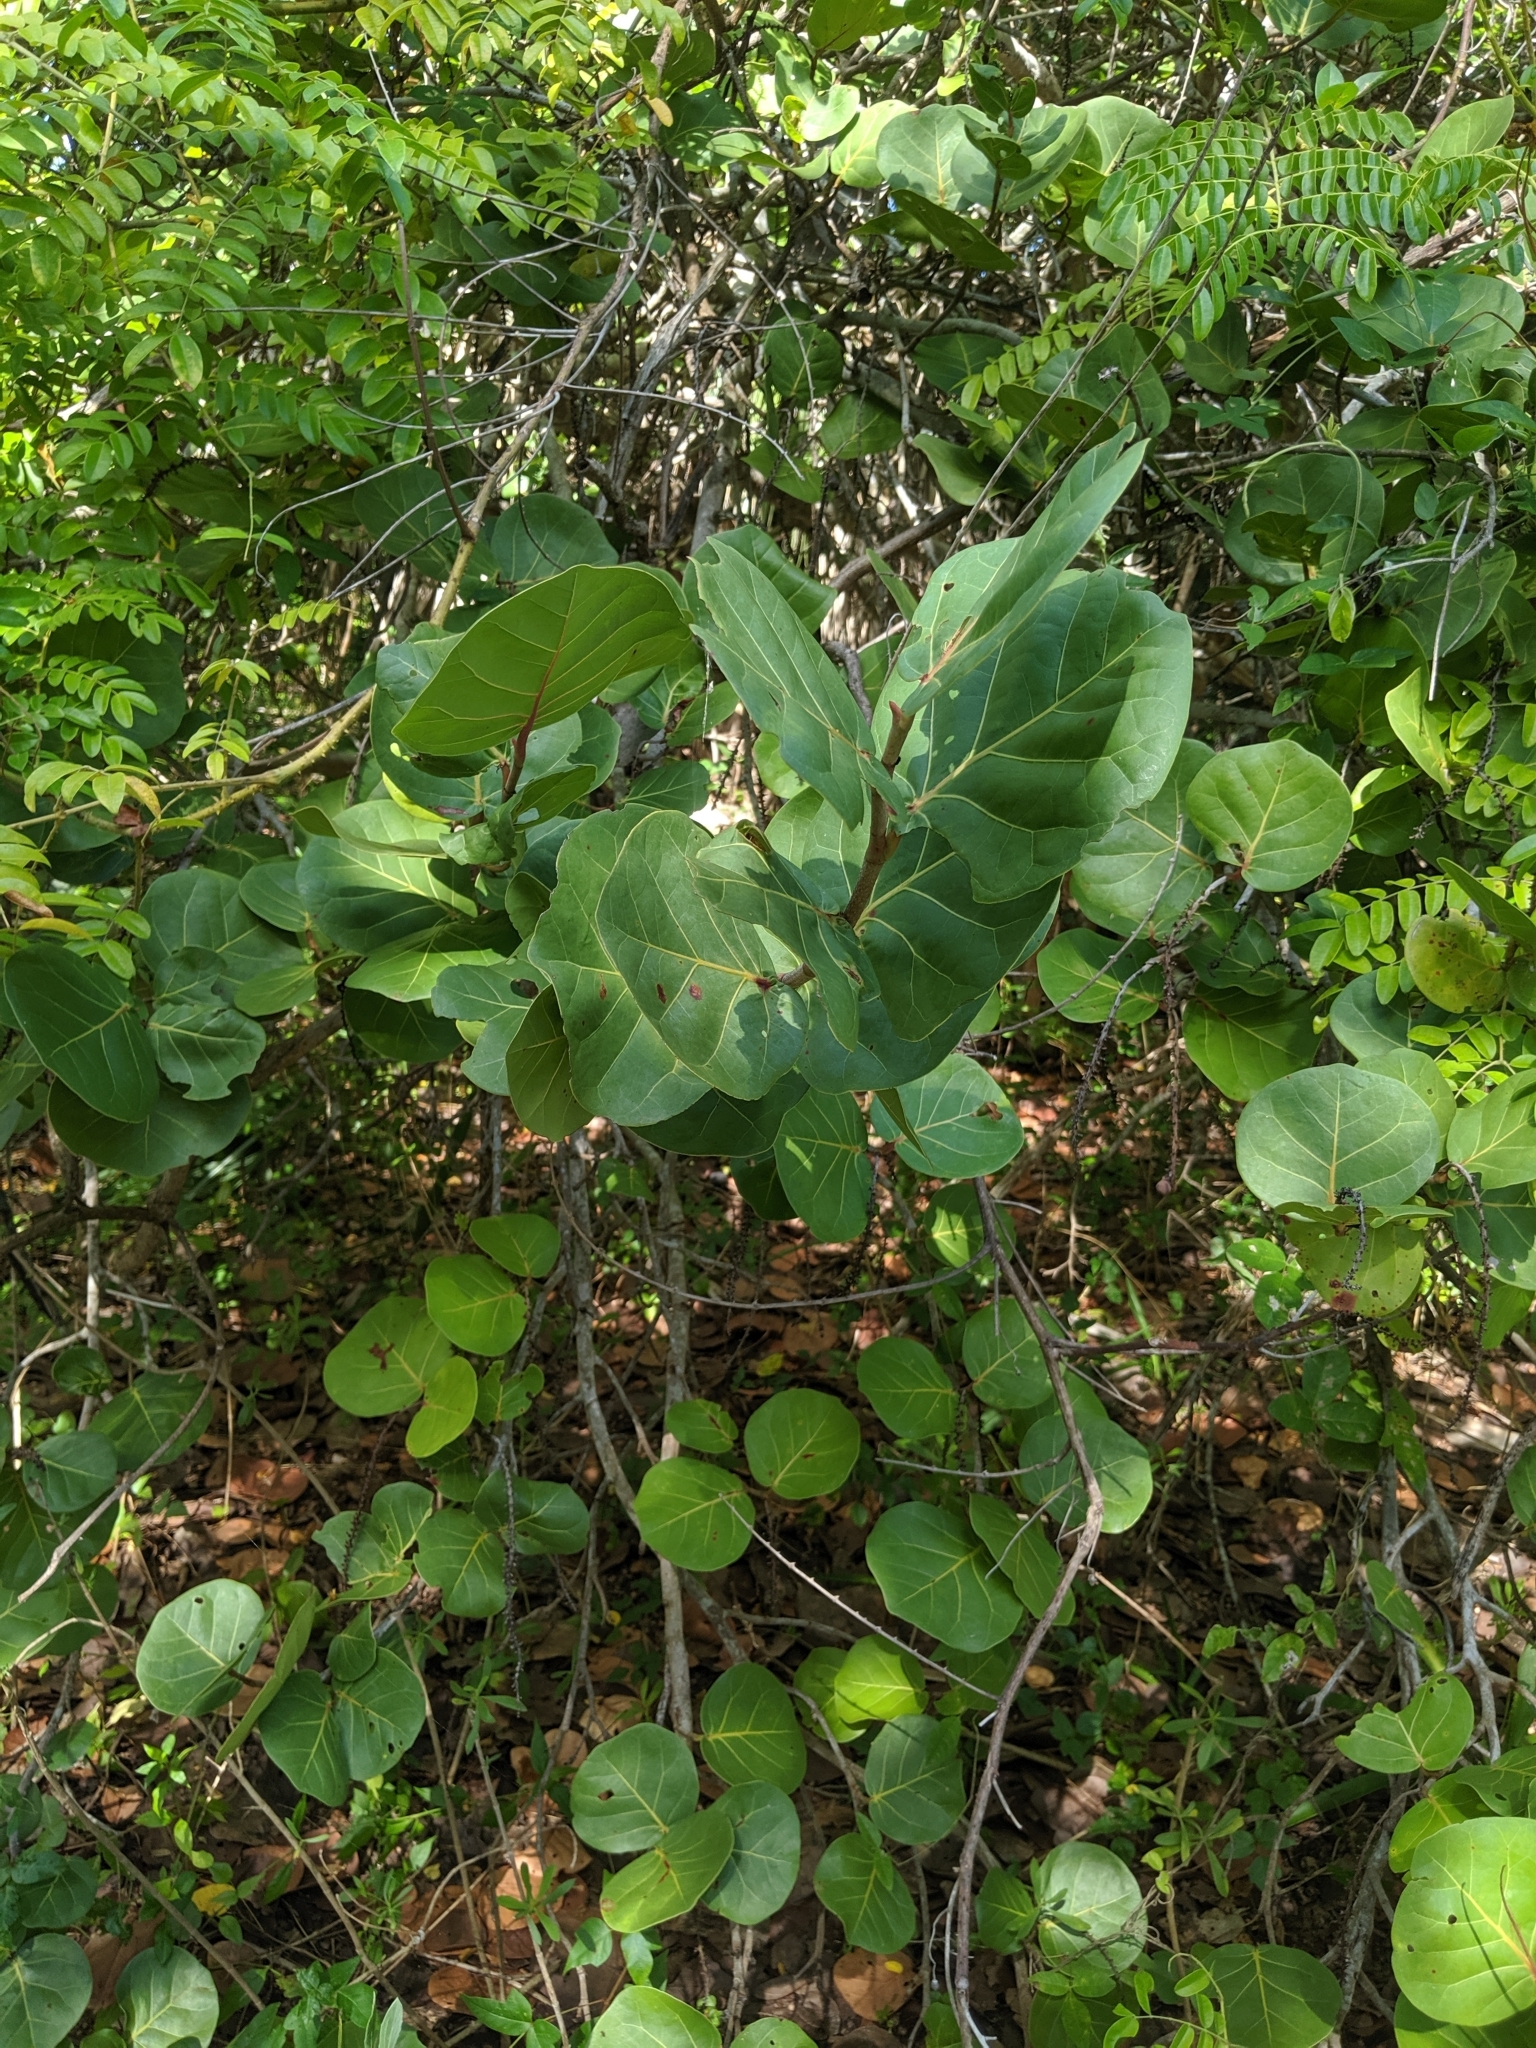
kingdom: Plantae
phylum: Tracheophyta
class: Magnoliopsida
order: Caryophyllales
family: Polygonaceae
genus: Coccoloba
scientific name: Coccoloba uvifera
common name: Seagrape
